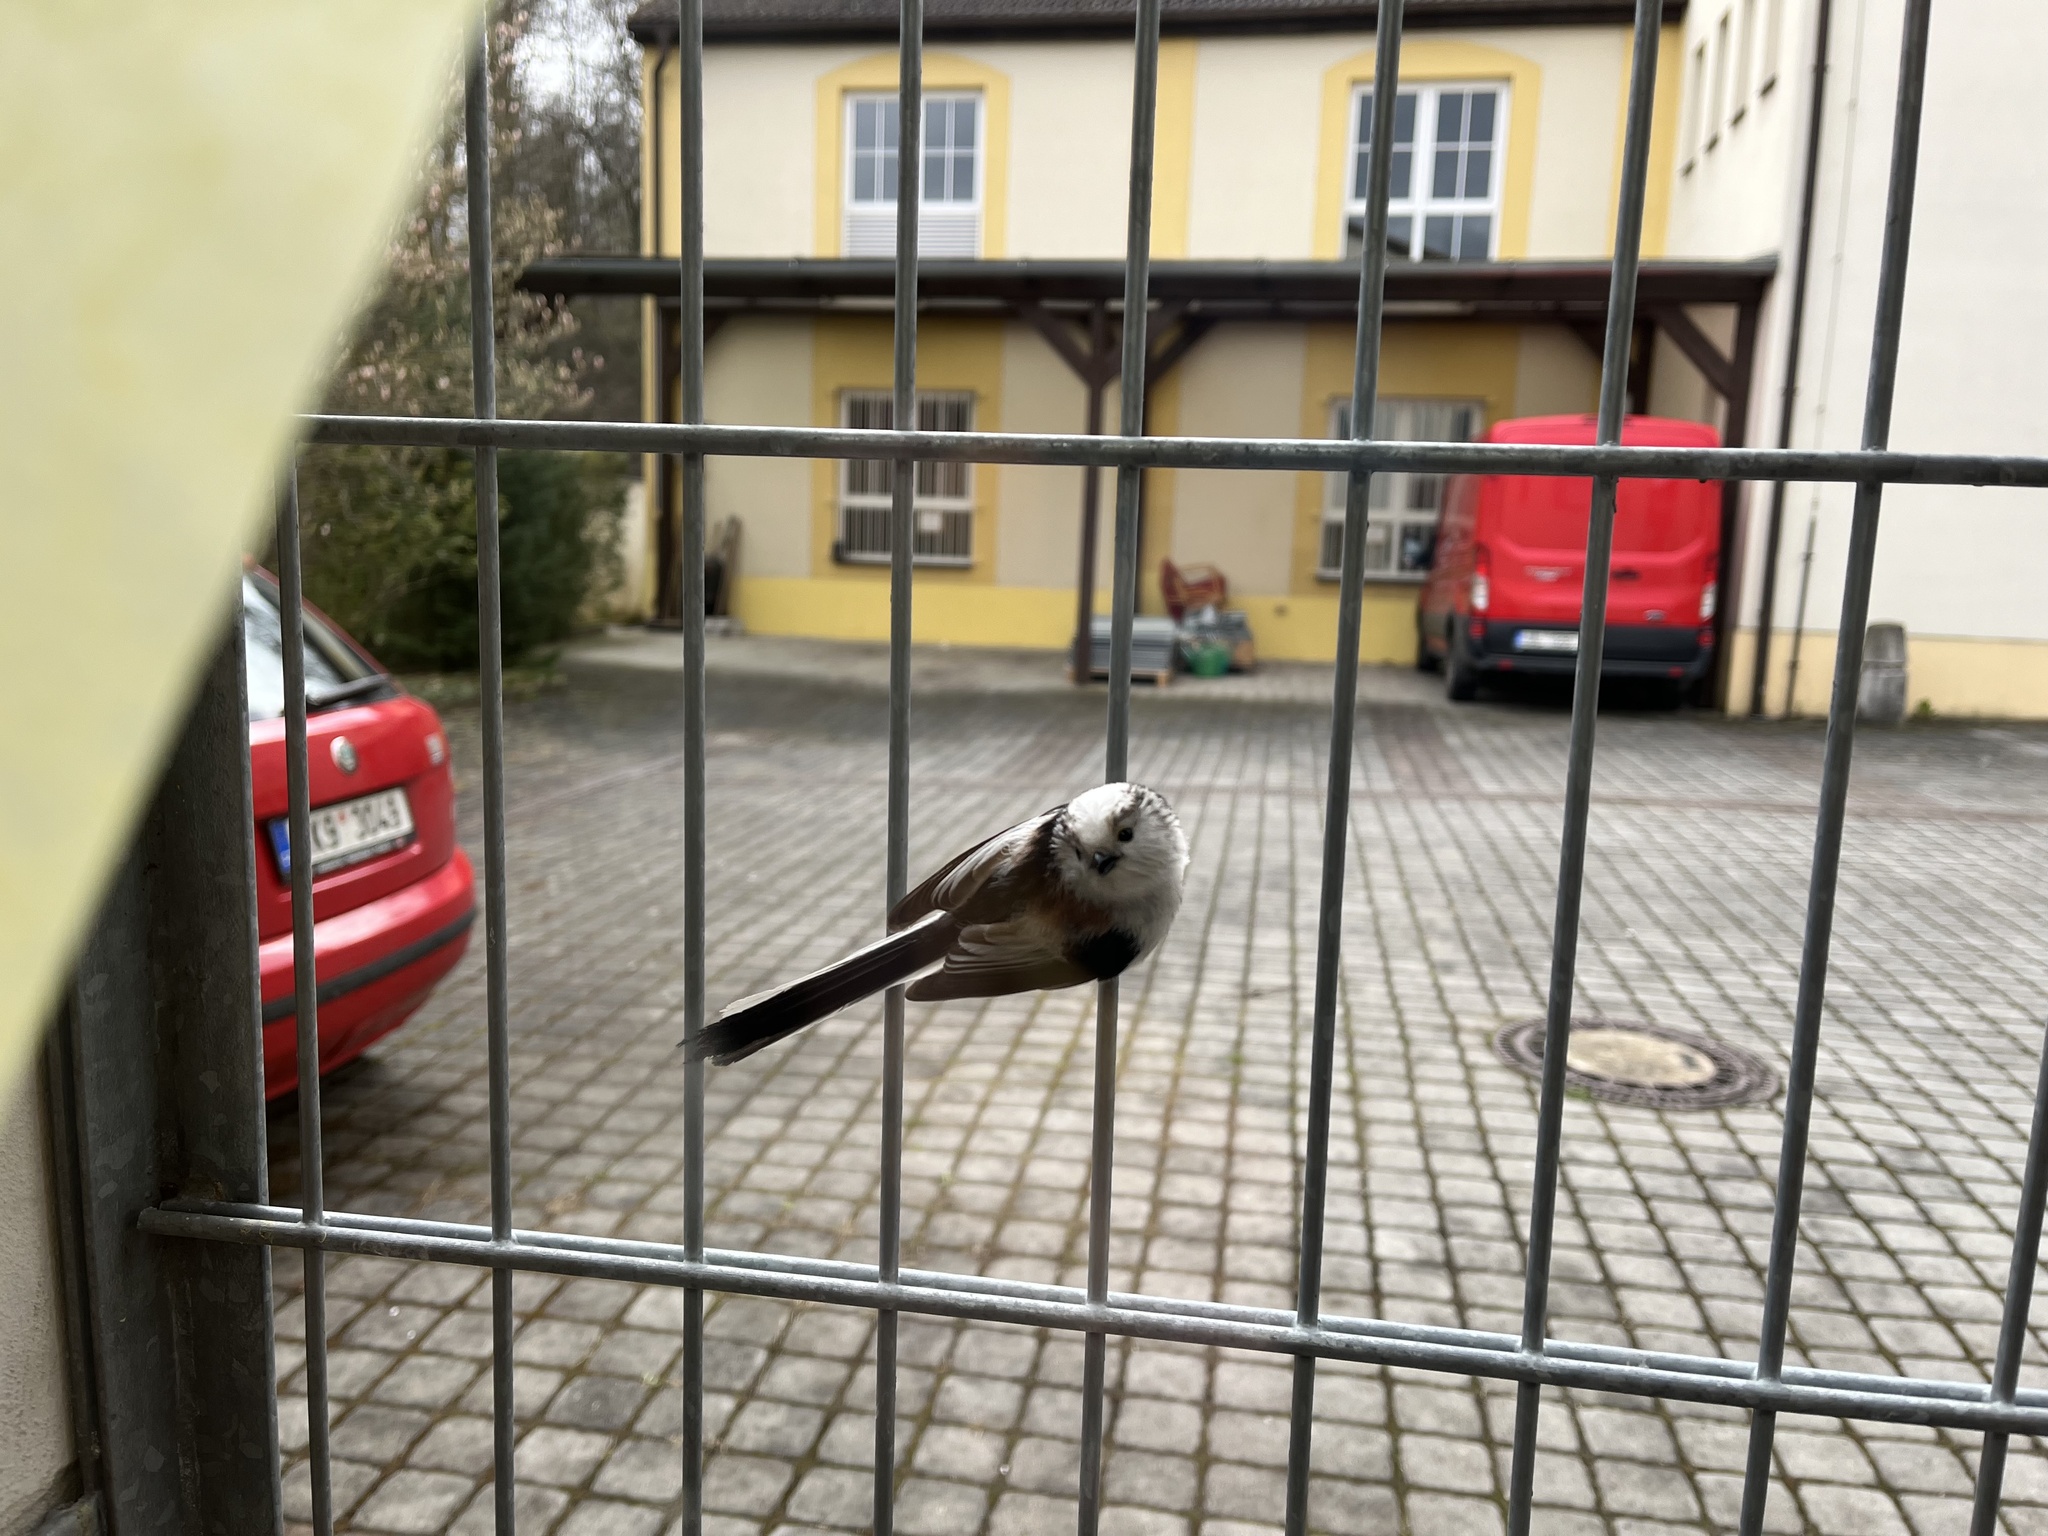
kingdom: Animalia
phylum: Chordata
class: Aves
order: Passeriformes
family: Aegithalidae
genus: Aegithalos
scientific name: Aegithalos caudatus
